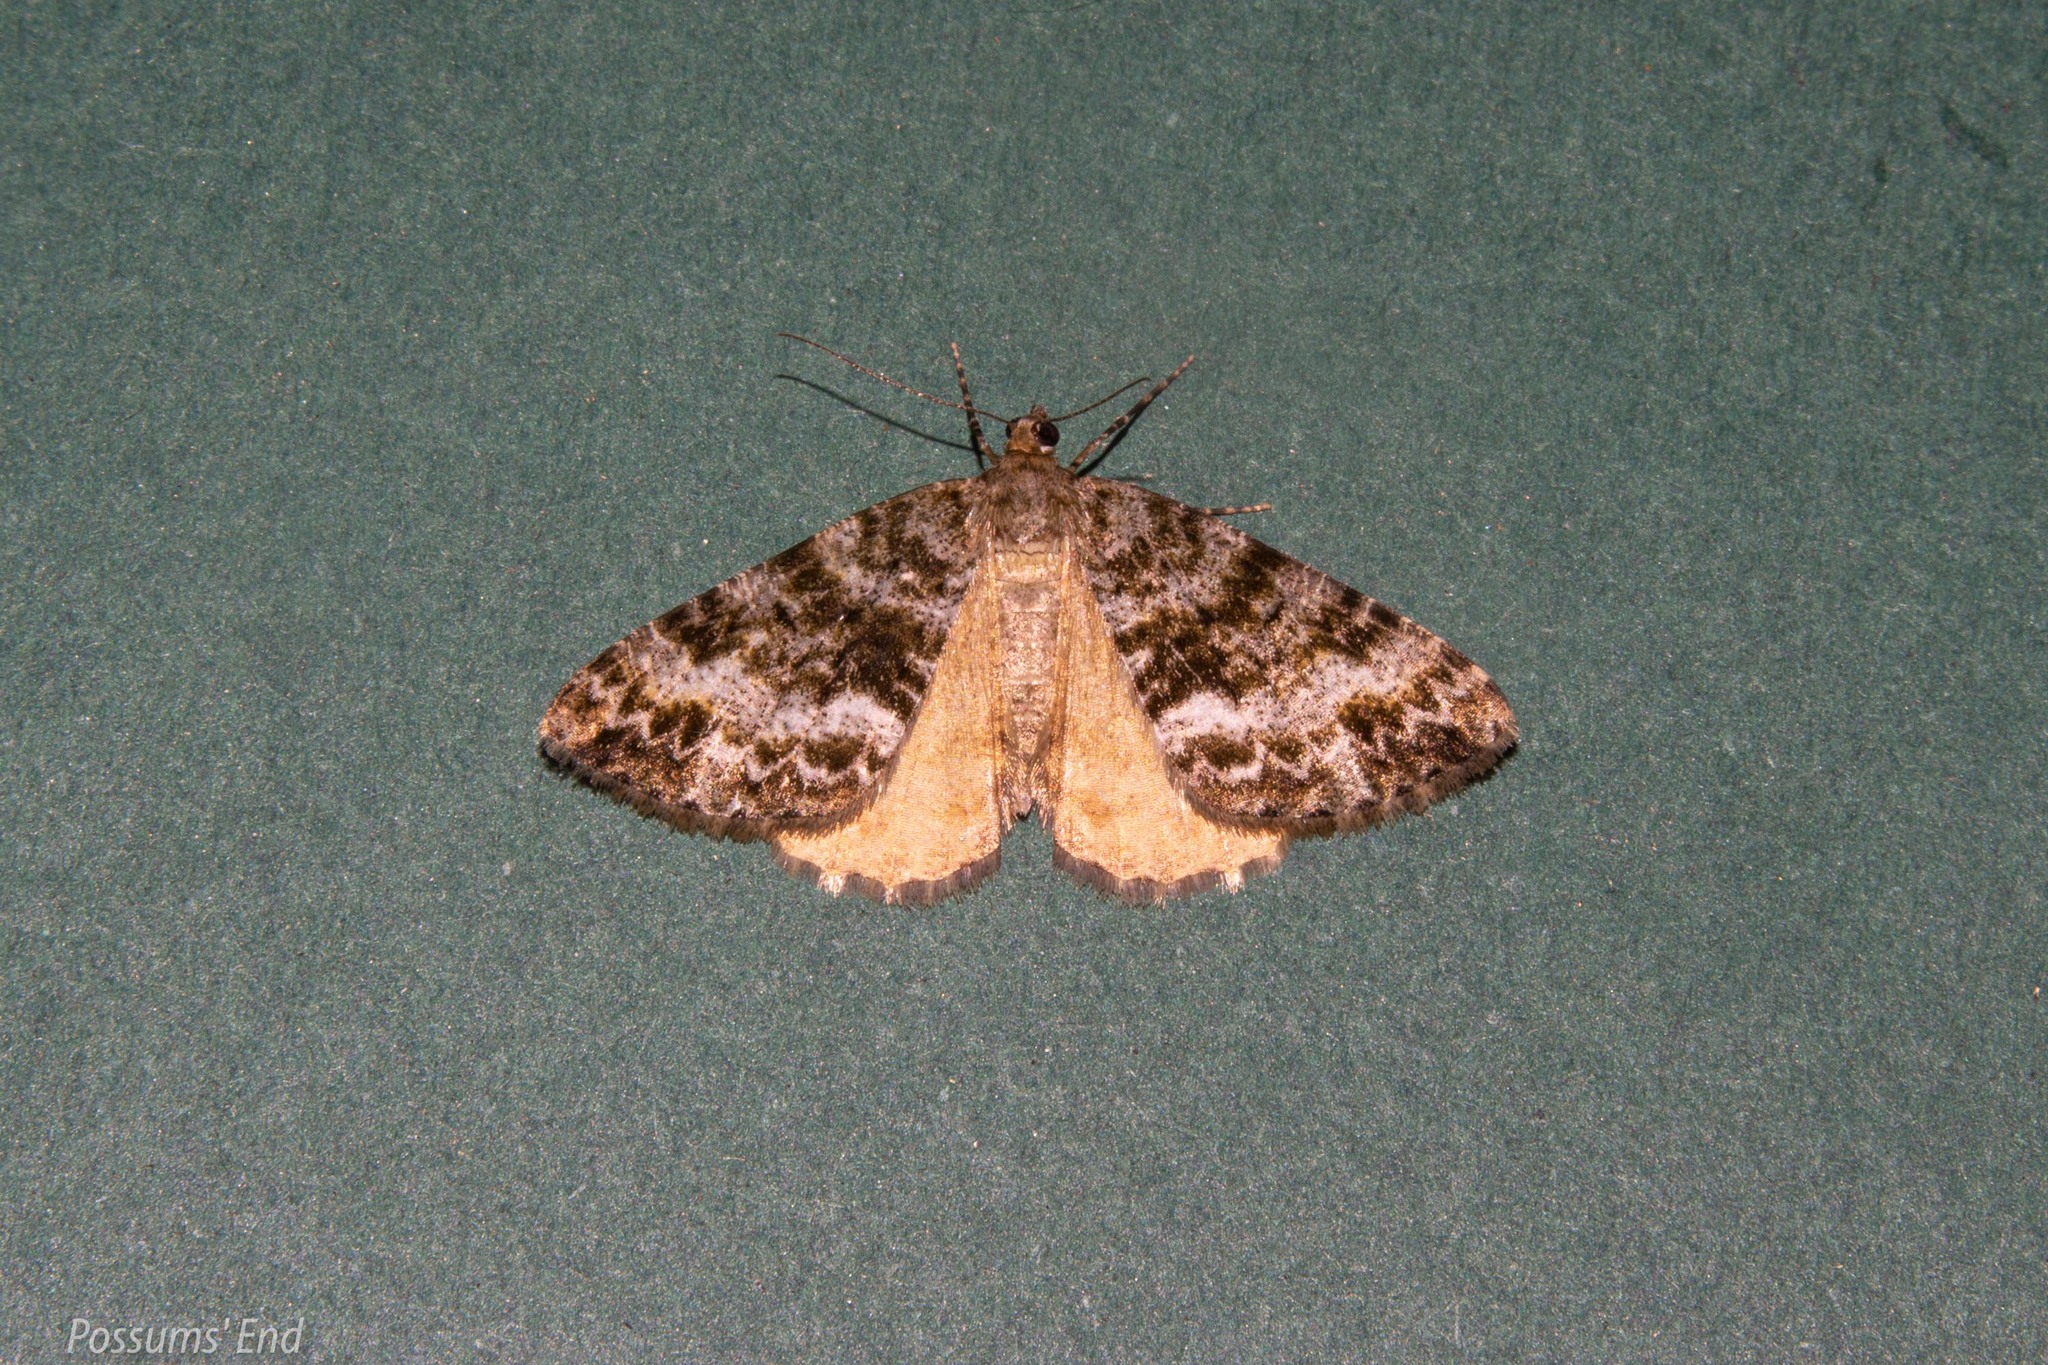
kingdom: Animalia
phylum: Arthropoda
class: Insecta
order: Lepidoptera
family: Geometridae
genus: Pseudocoremia
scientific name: Pseudocoremia lactiflua
